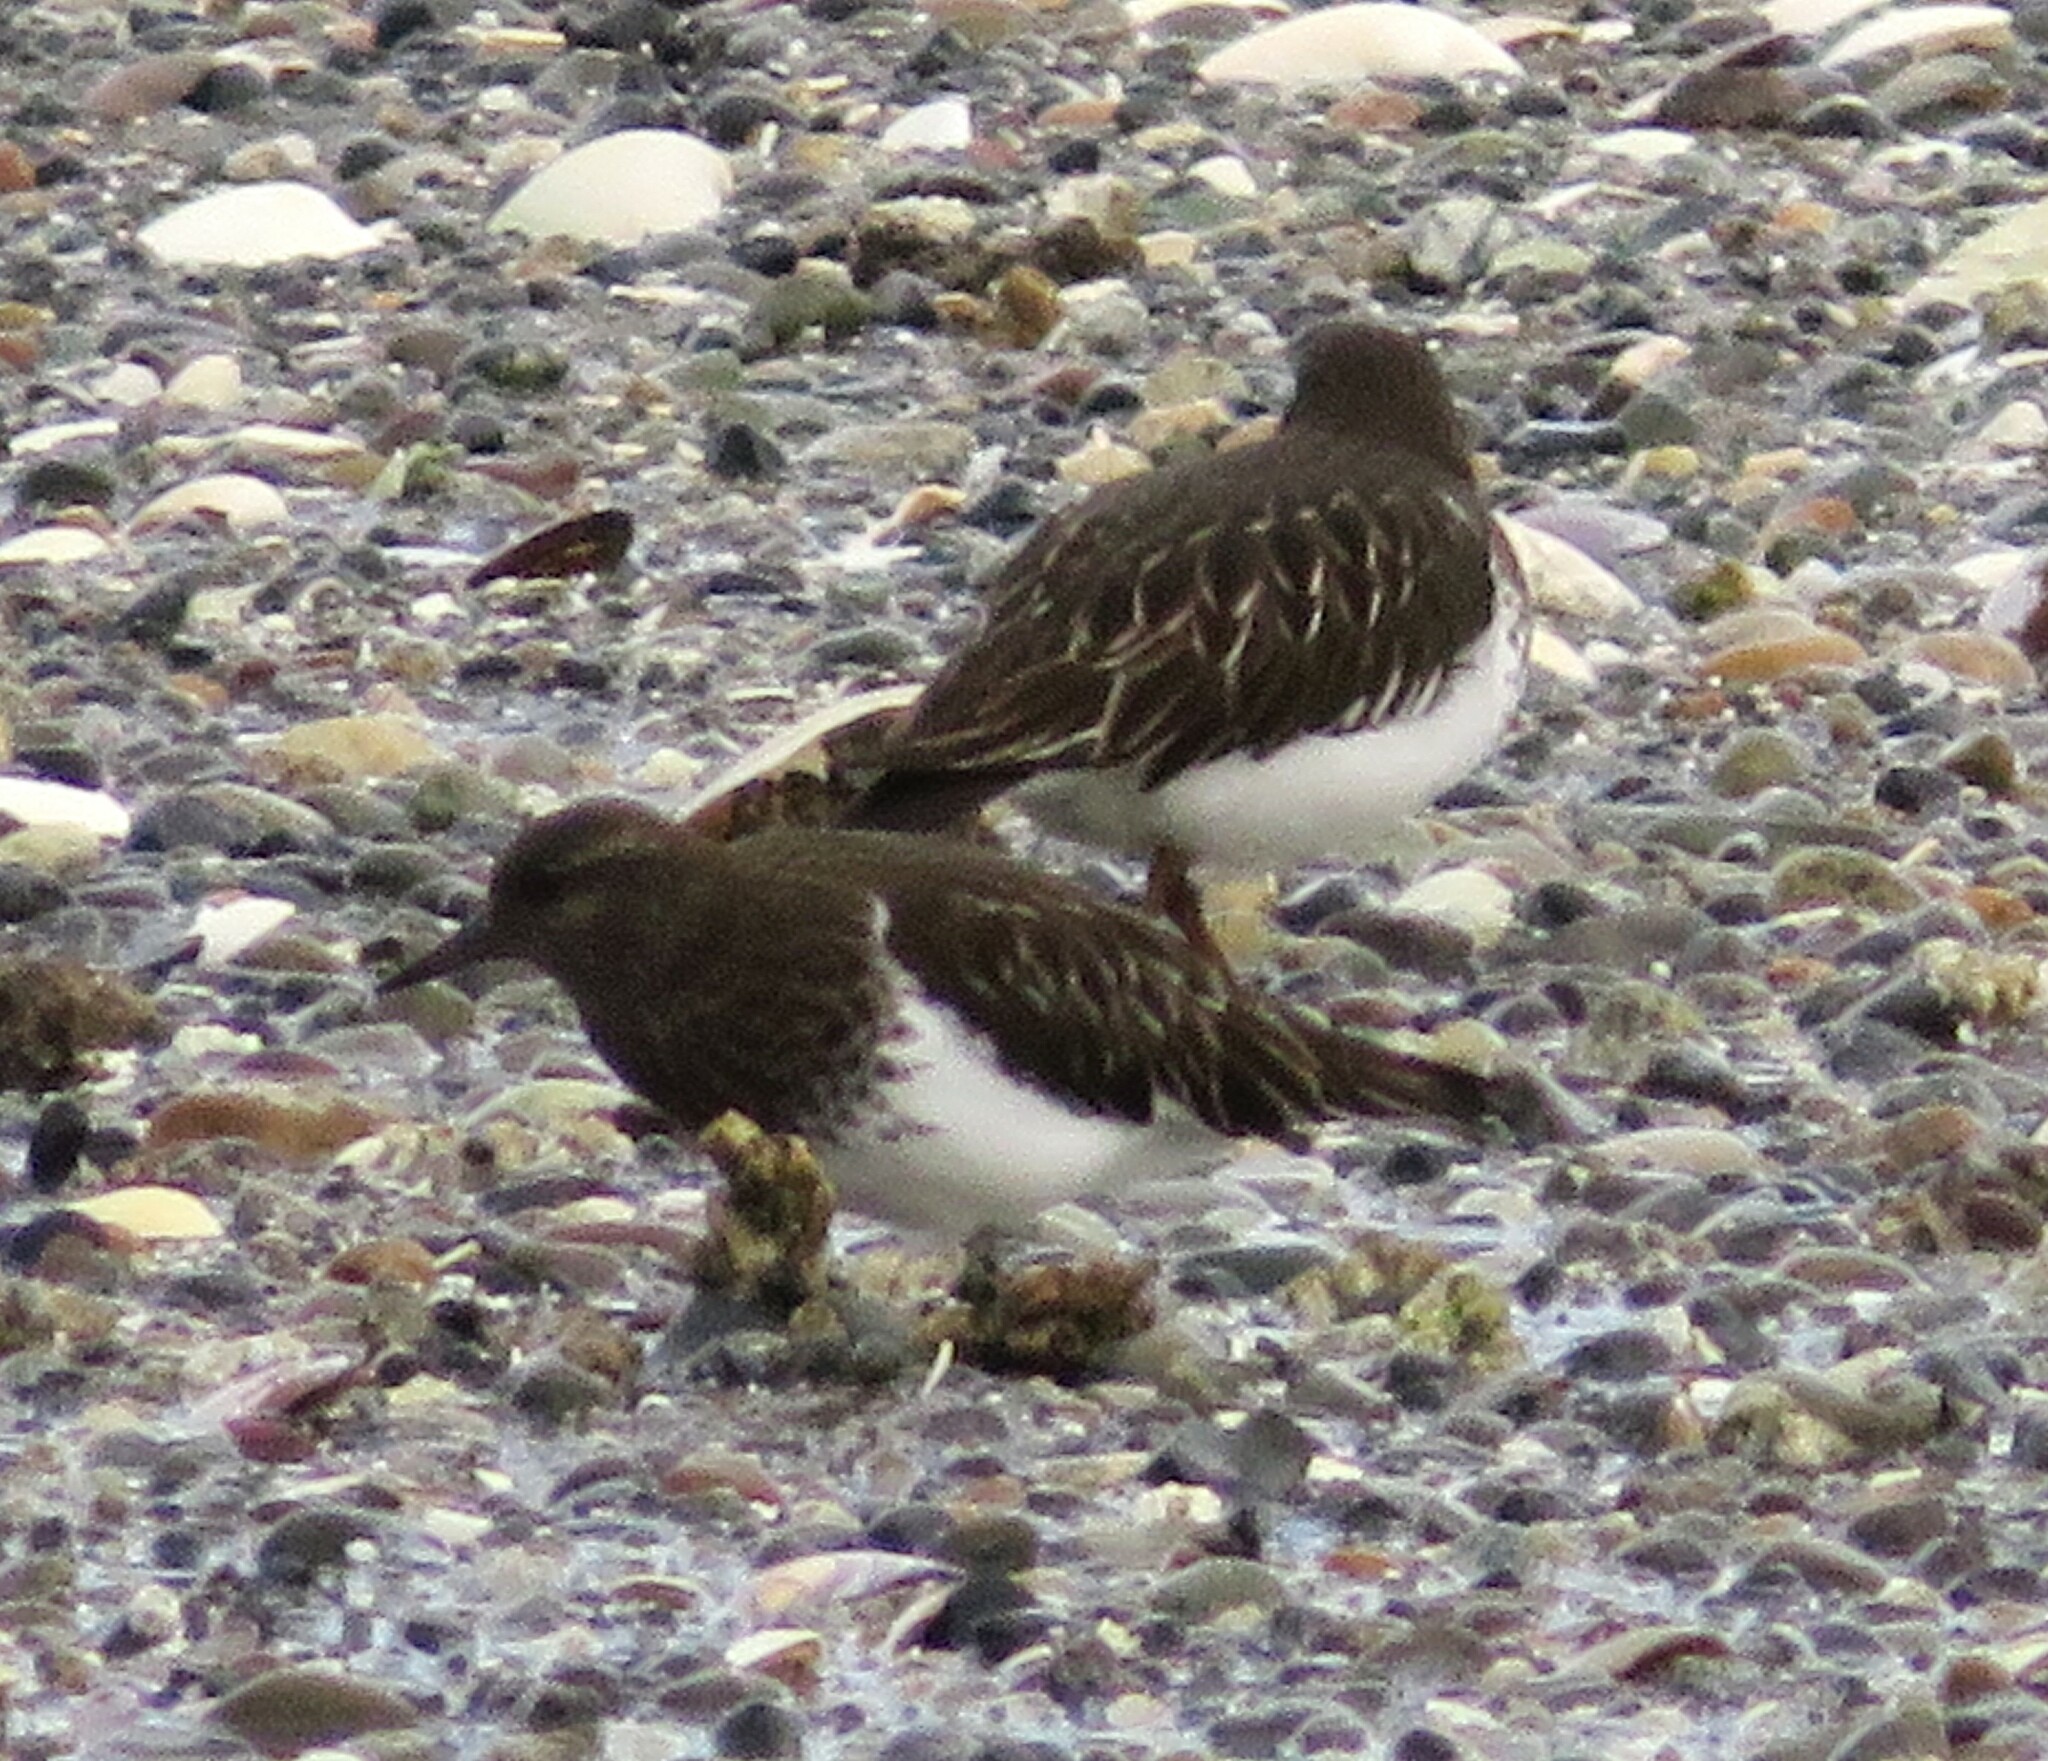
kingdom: Animalia
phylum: Chordata
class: Aves
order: Charadriiformes
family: Scolopacidae
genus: Arenaria
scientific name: Arenaria melanocephala
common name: Black turnstone
